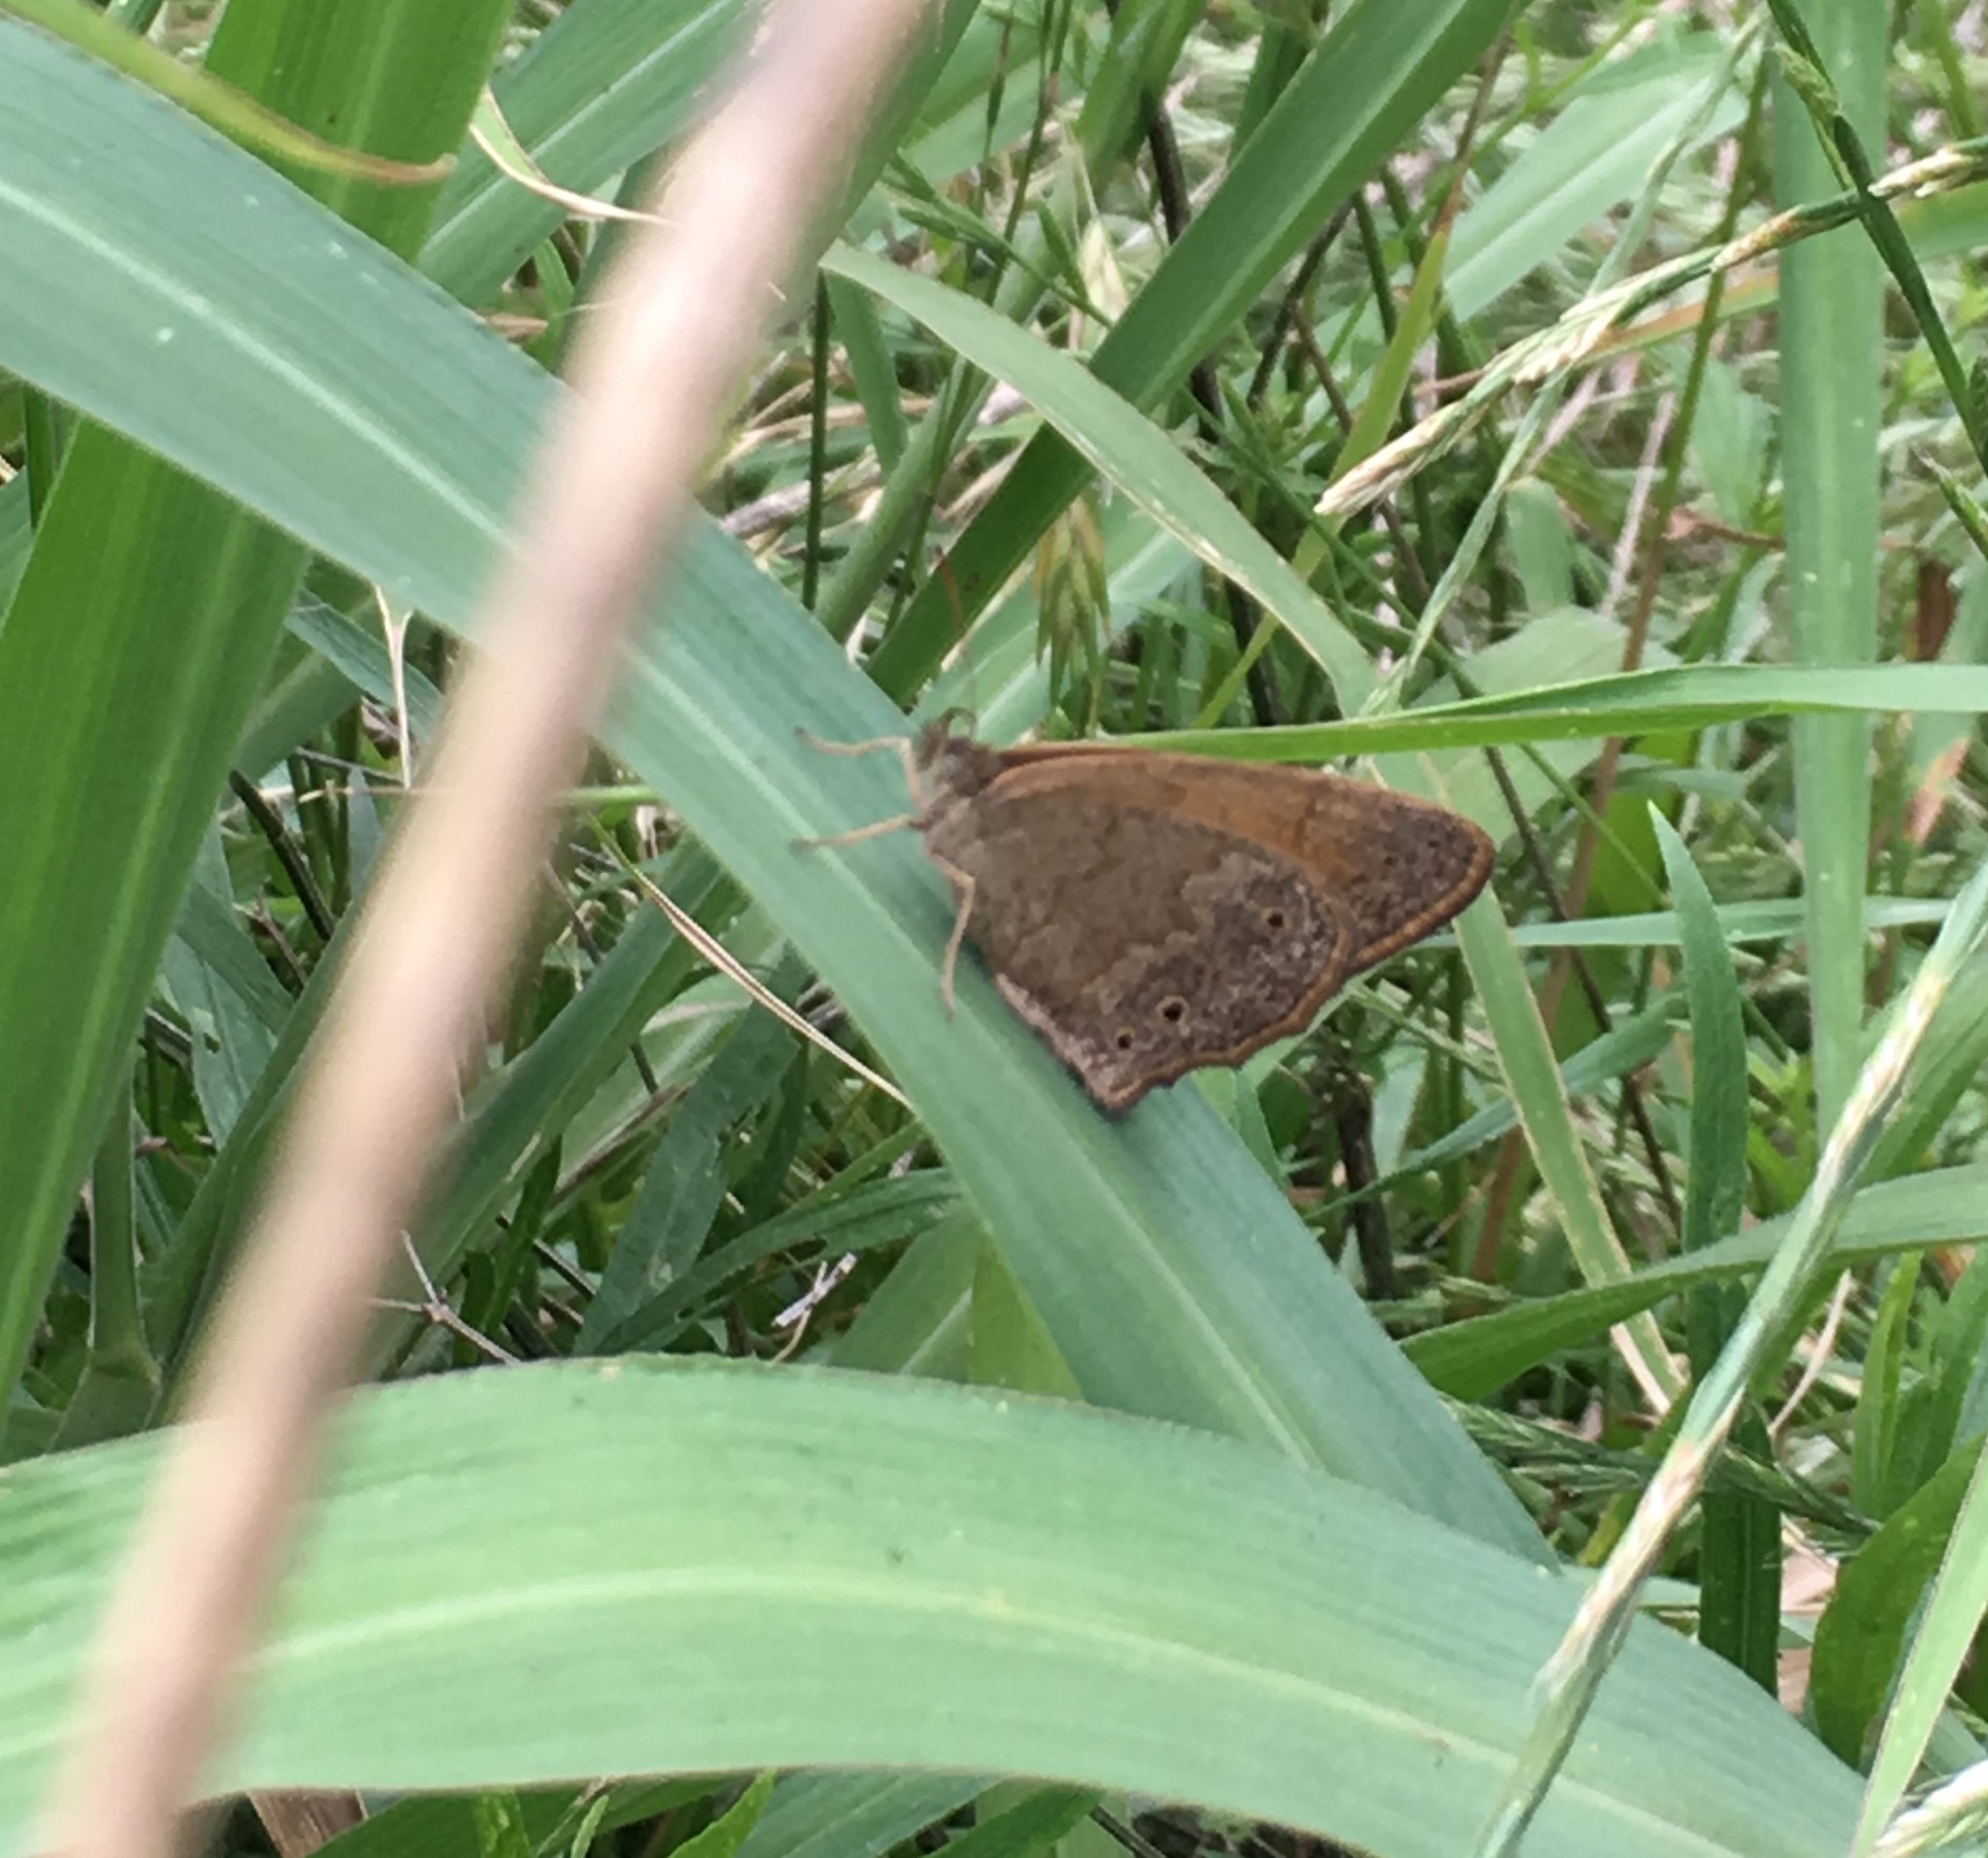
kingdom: Animalia
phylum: Arthropoda
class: Insecta
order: Lepidoptera
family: Nymphalidae
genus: Yphthimoides
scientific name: Yphthimoides celmis
